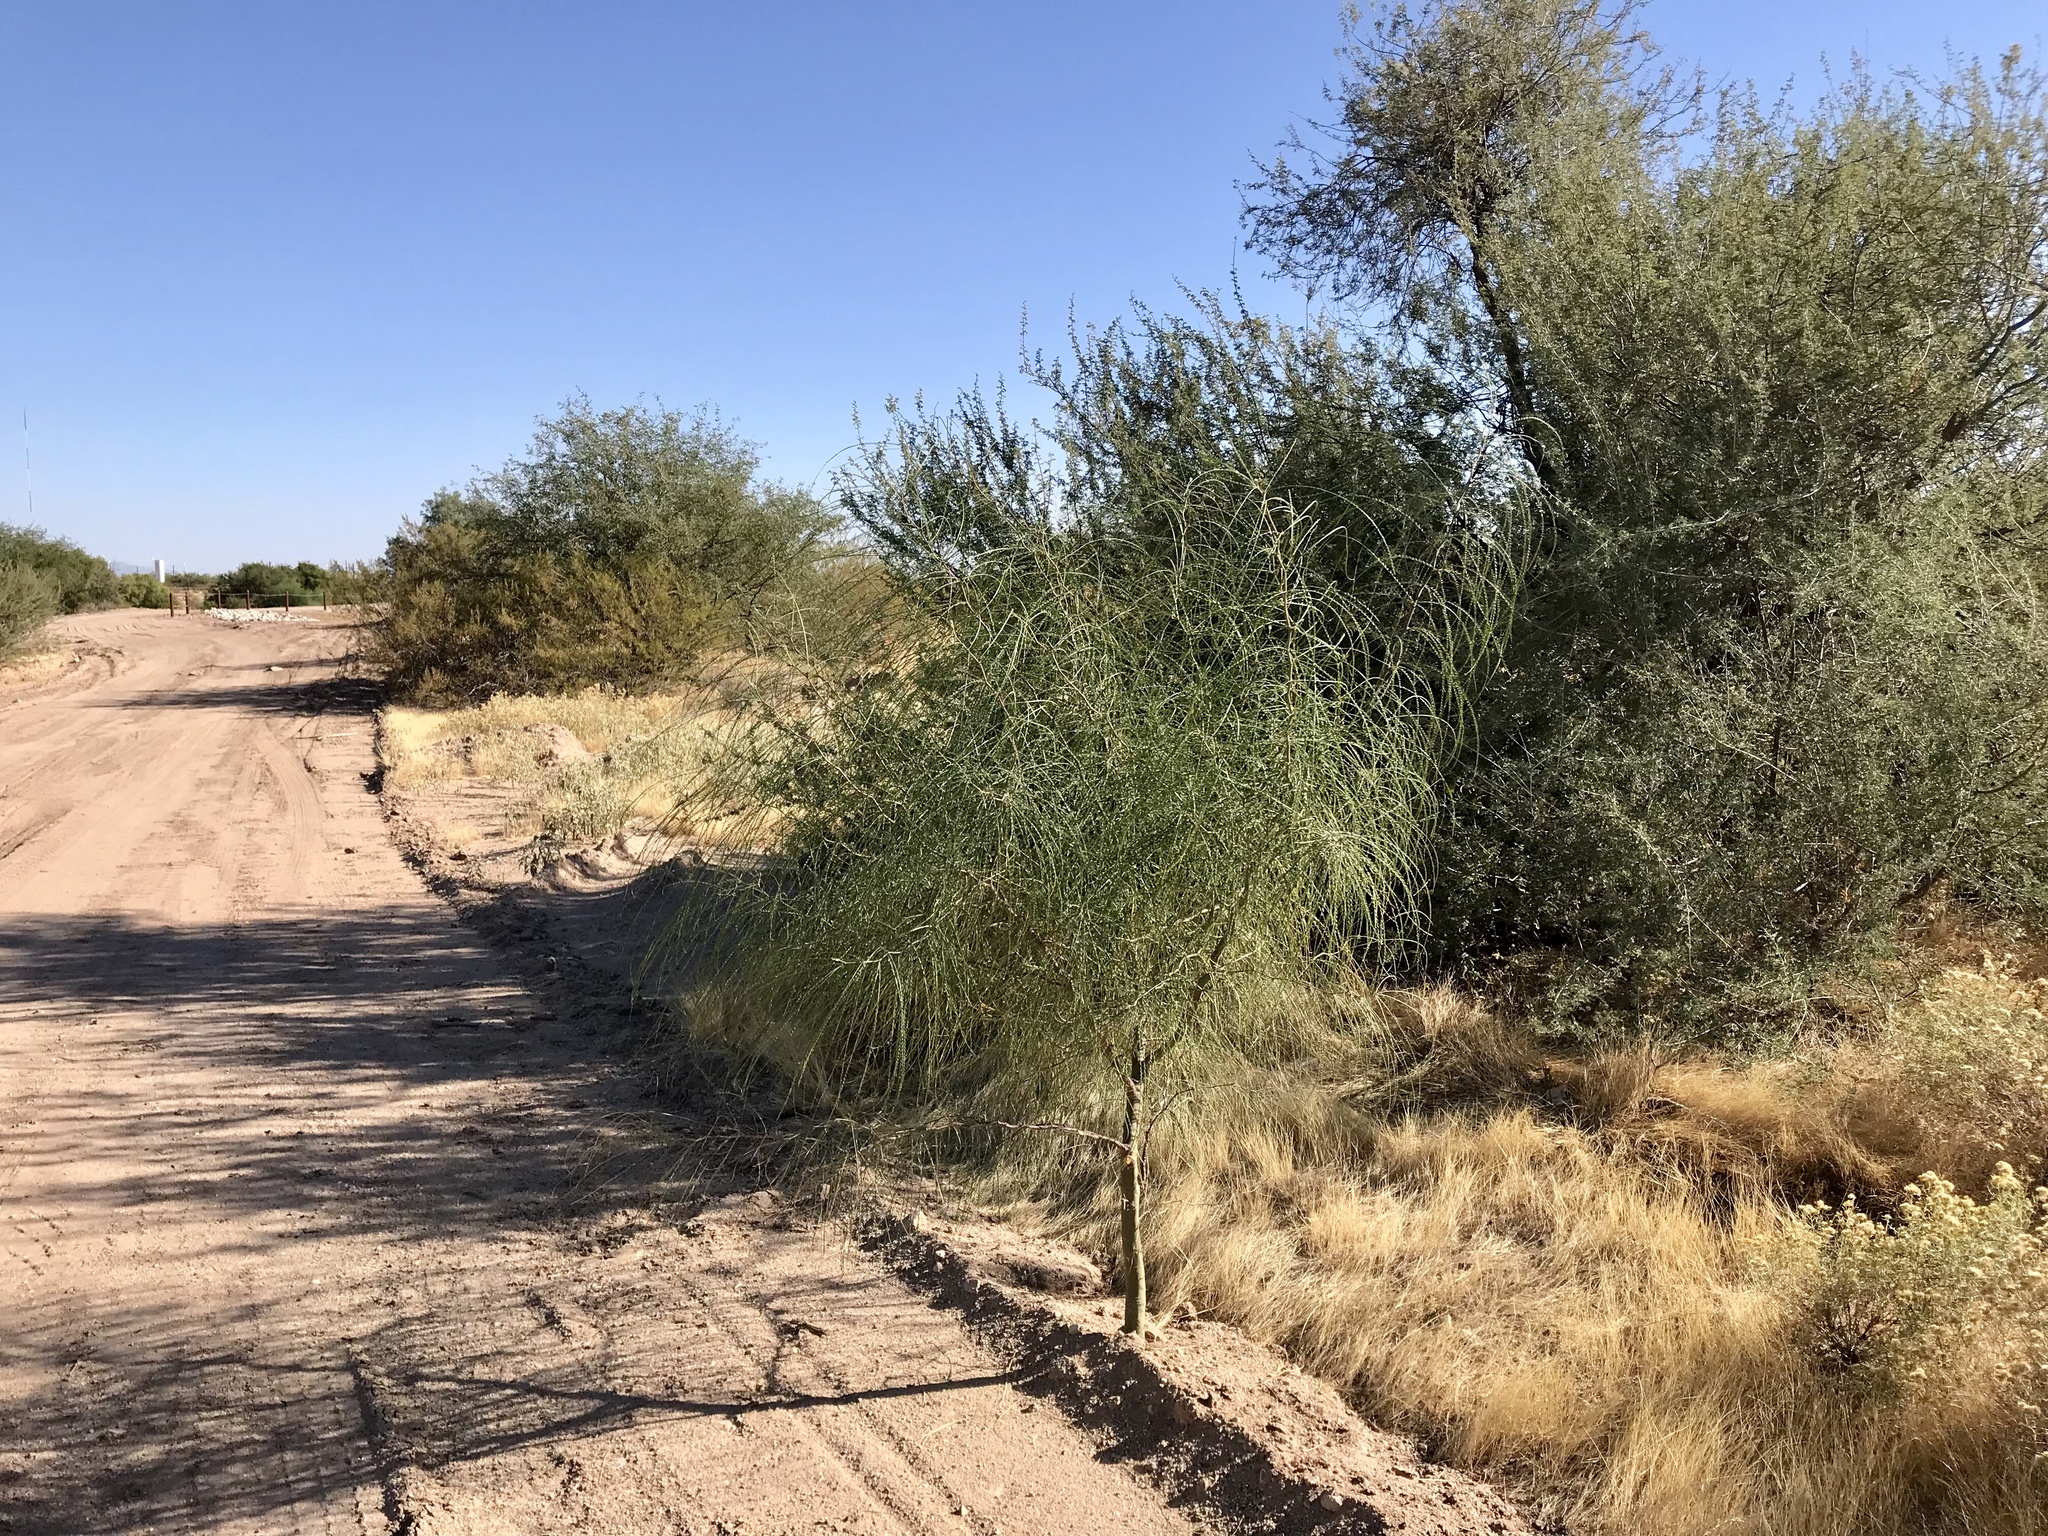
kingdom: Plantae
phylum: Tracheophyta
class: Magnoliopsida
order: Fabales
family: Fabaceae
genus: Parkinsonia
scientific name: Parkinsonia aculeata
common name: Jerusalem thorn
